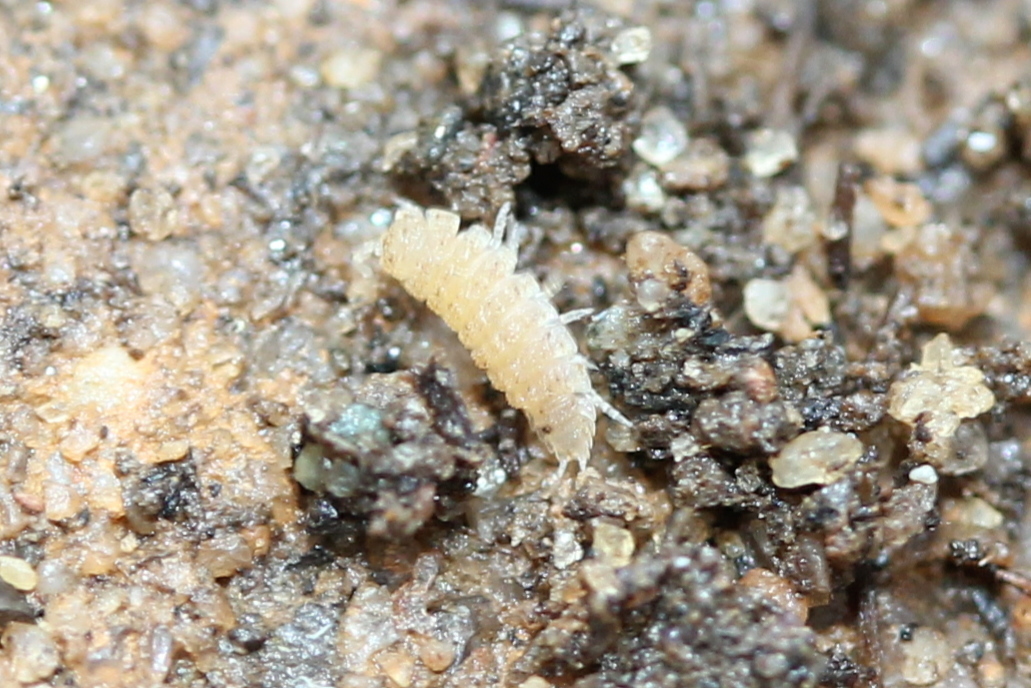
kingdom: Animalia
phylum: Arthropoda
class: Malacostraca
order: Isopoda
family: Trichoniscidae
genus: Haplophthalmus
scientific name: Haplophthalmus danicus
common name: Pillbug
